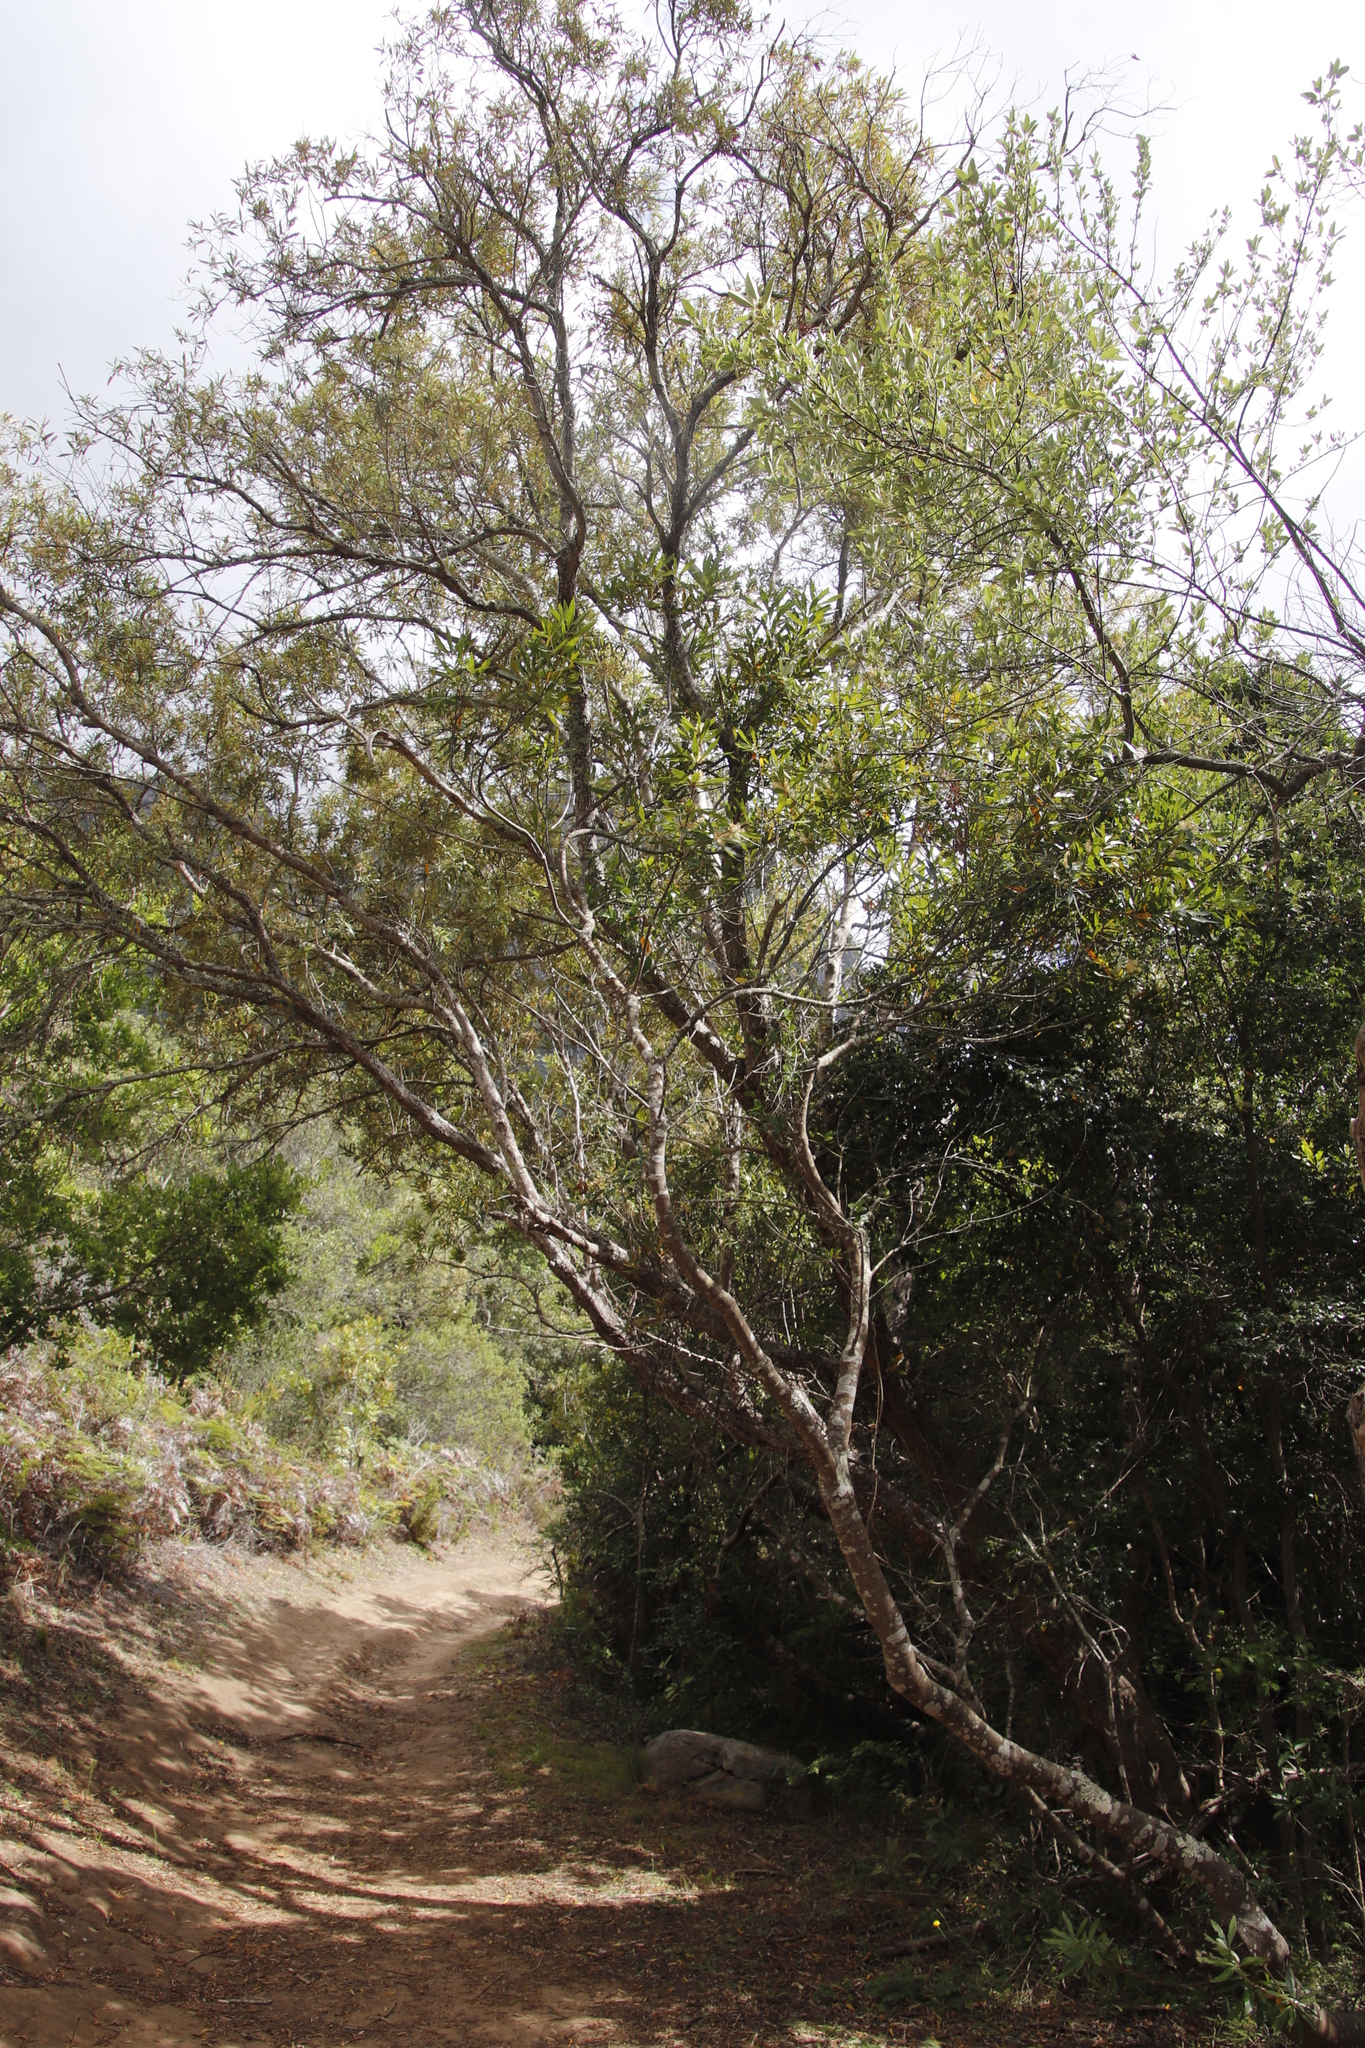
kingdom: Plantae
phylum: Tracheophyta
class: Magnoliopsida
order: Lamiales
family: Oleaceae
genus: Olea
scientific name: Olea europaea
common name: Olive
